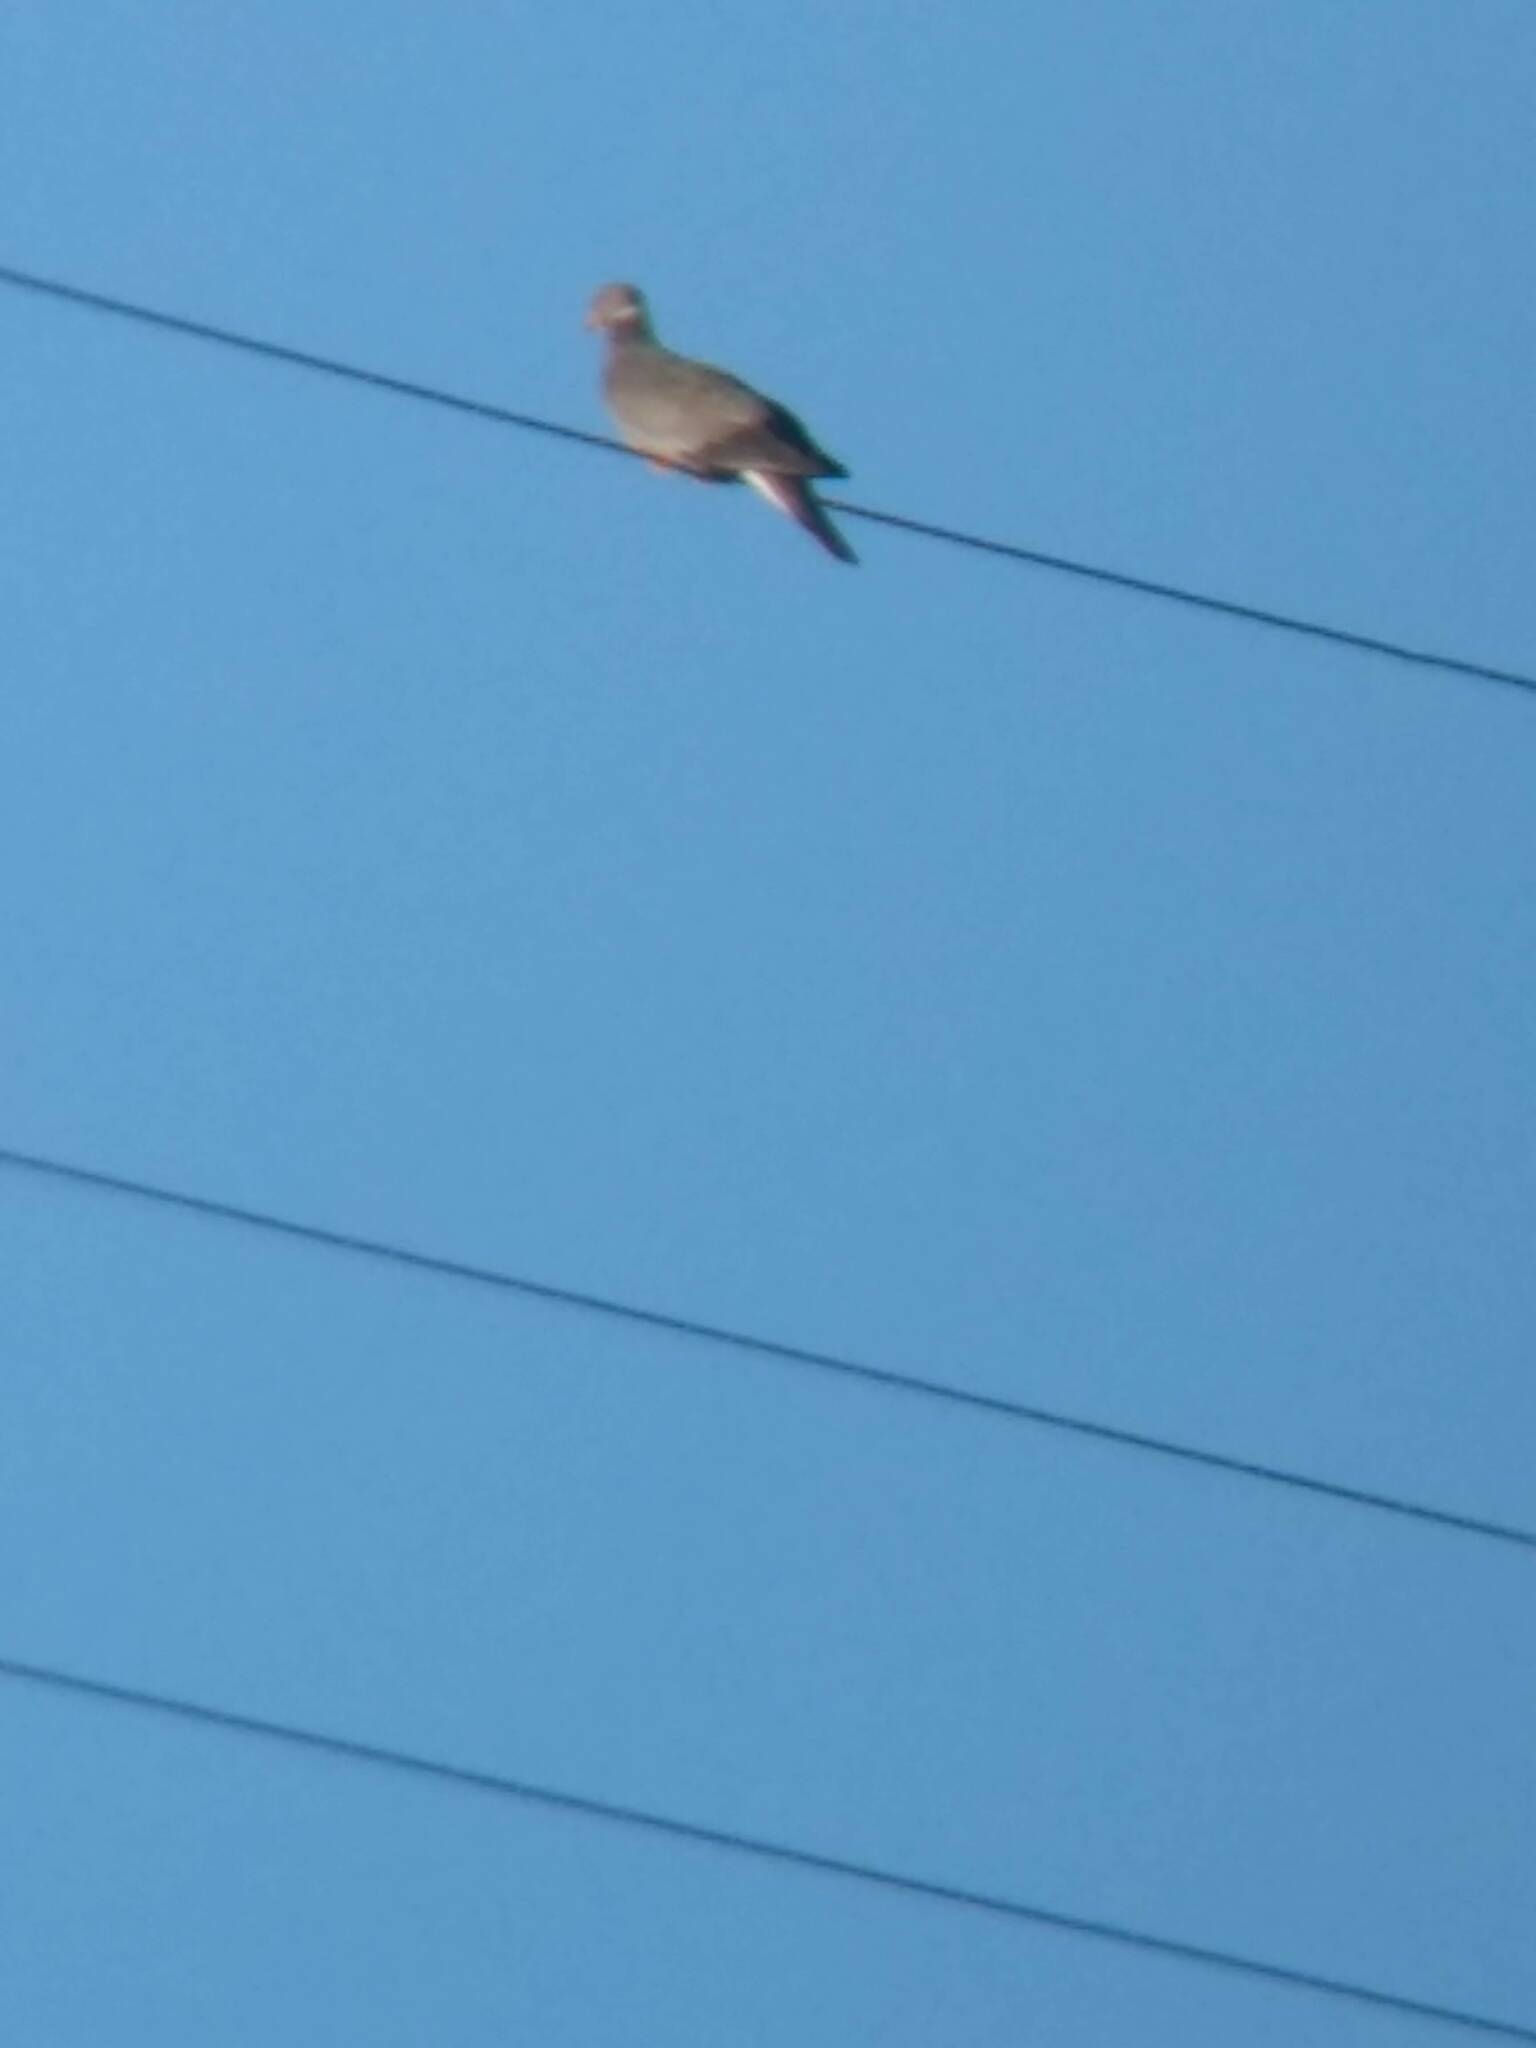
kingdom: Animalia
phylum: Chordata
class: Aves
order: Columbiformes
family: Columbidae
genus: Patagioenas
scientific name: Patagioenas fasciata
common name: Band-tailed pigeon
